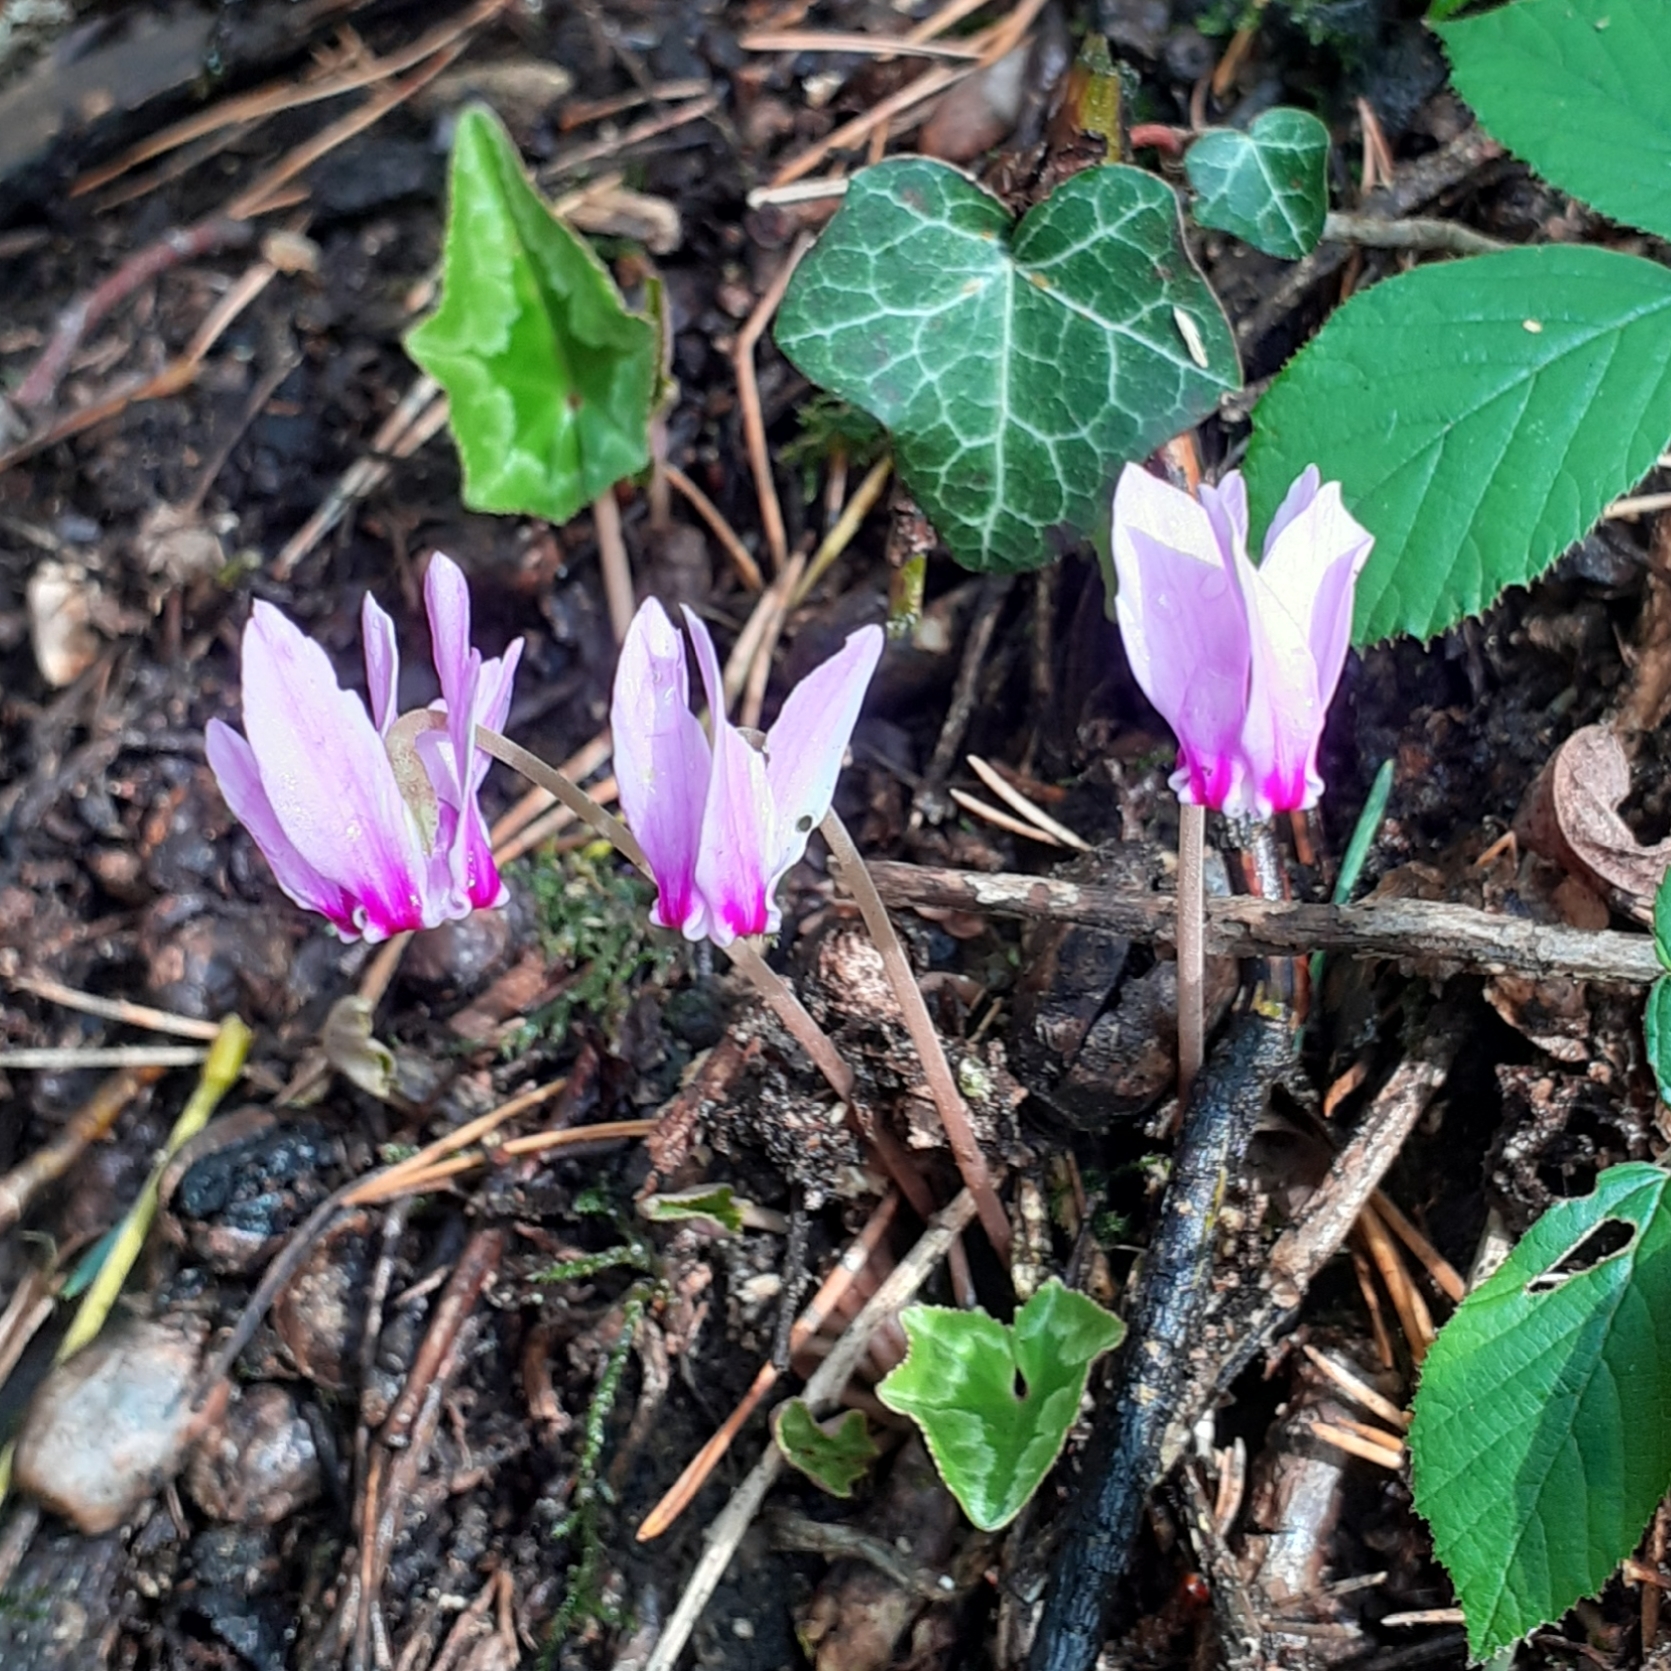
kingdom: Plantae
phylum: Tracheophyta
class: Magnoliopsida
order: Ericales
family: Primulaceae
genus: Cyclamen
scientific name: Cyclamen hederifolium
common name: Sowbread
